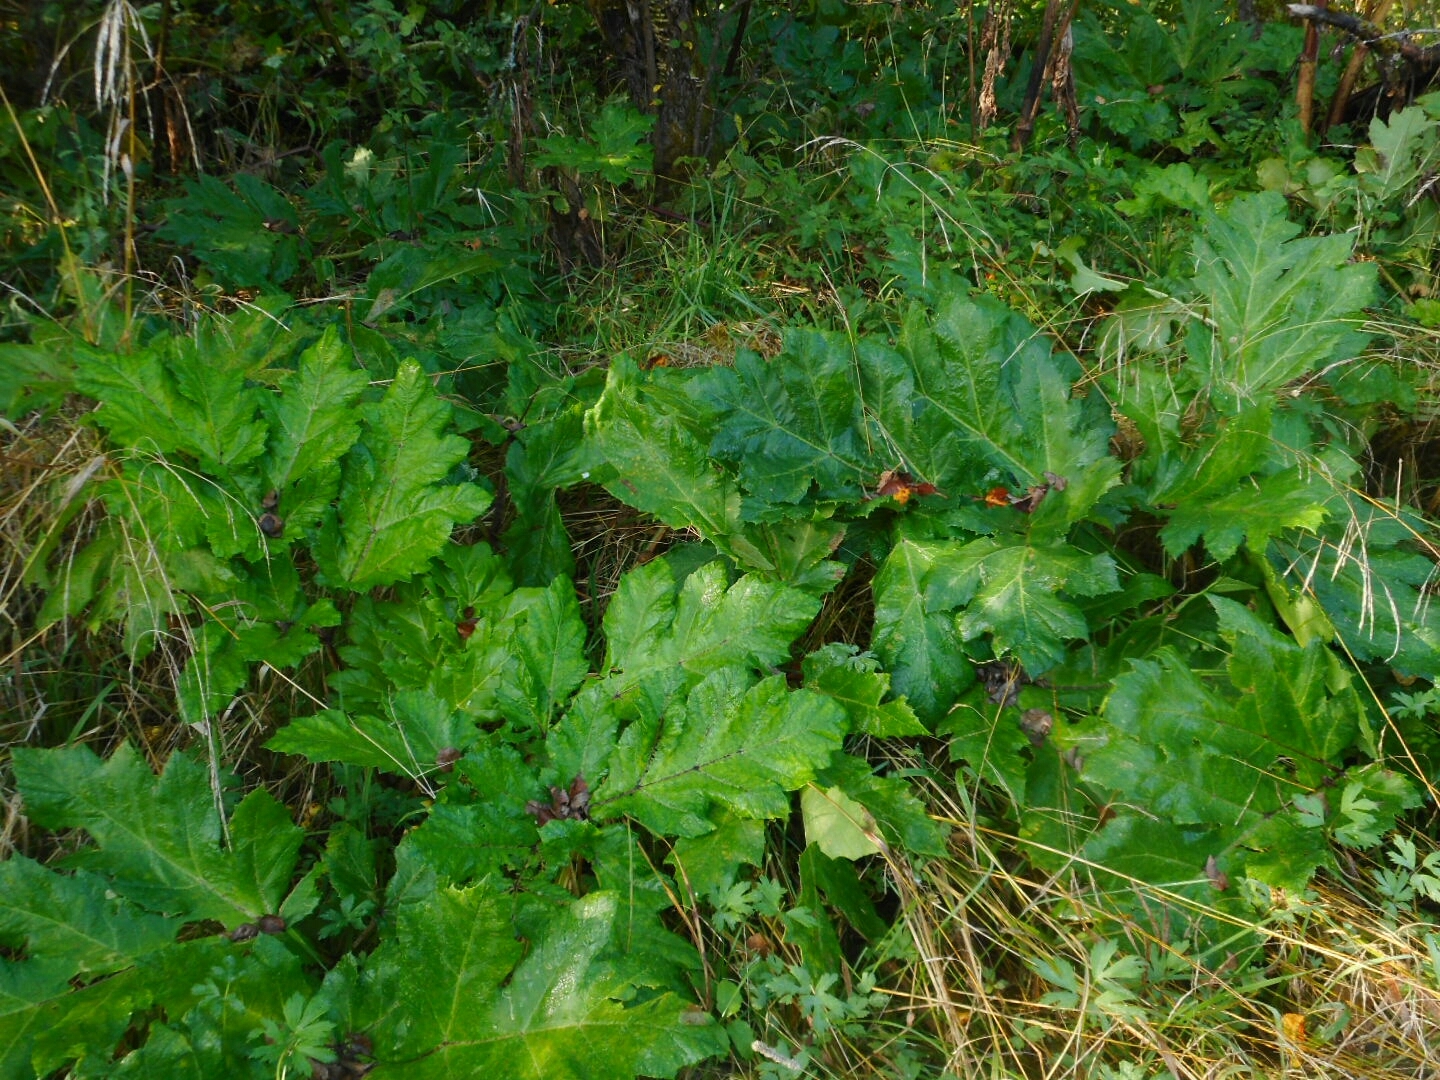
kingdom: Plantae
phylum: Tracheophyta
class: Magnoliopsida
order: Apiales
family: Apiaceae
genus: Heracleum
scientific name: Heracleum sosnowskyi
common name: Sosnowsky's hogweed
